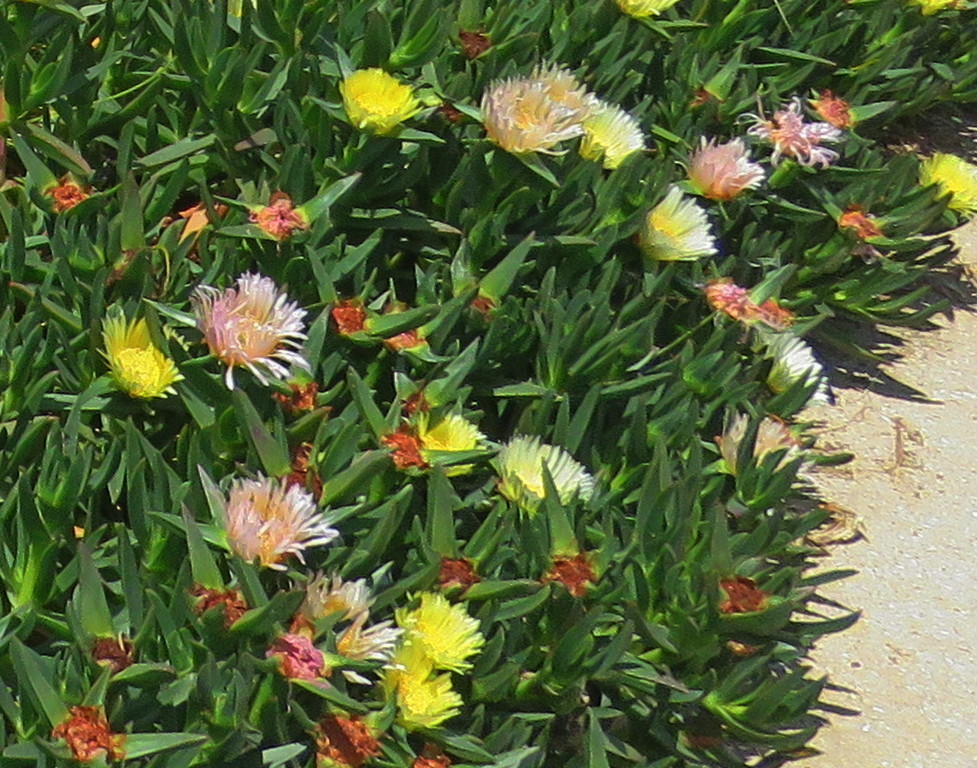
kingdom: Plantae
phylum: Tracheophyta
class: Magnoliopsida
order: Caryophyllales
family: Aizoaceae
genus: Carpobrotus
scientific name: Carpobrotus edulis
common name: Hottentot-fig
